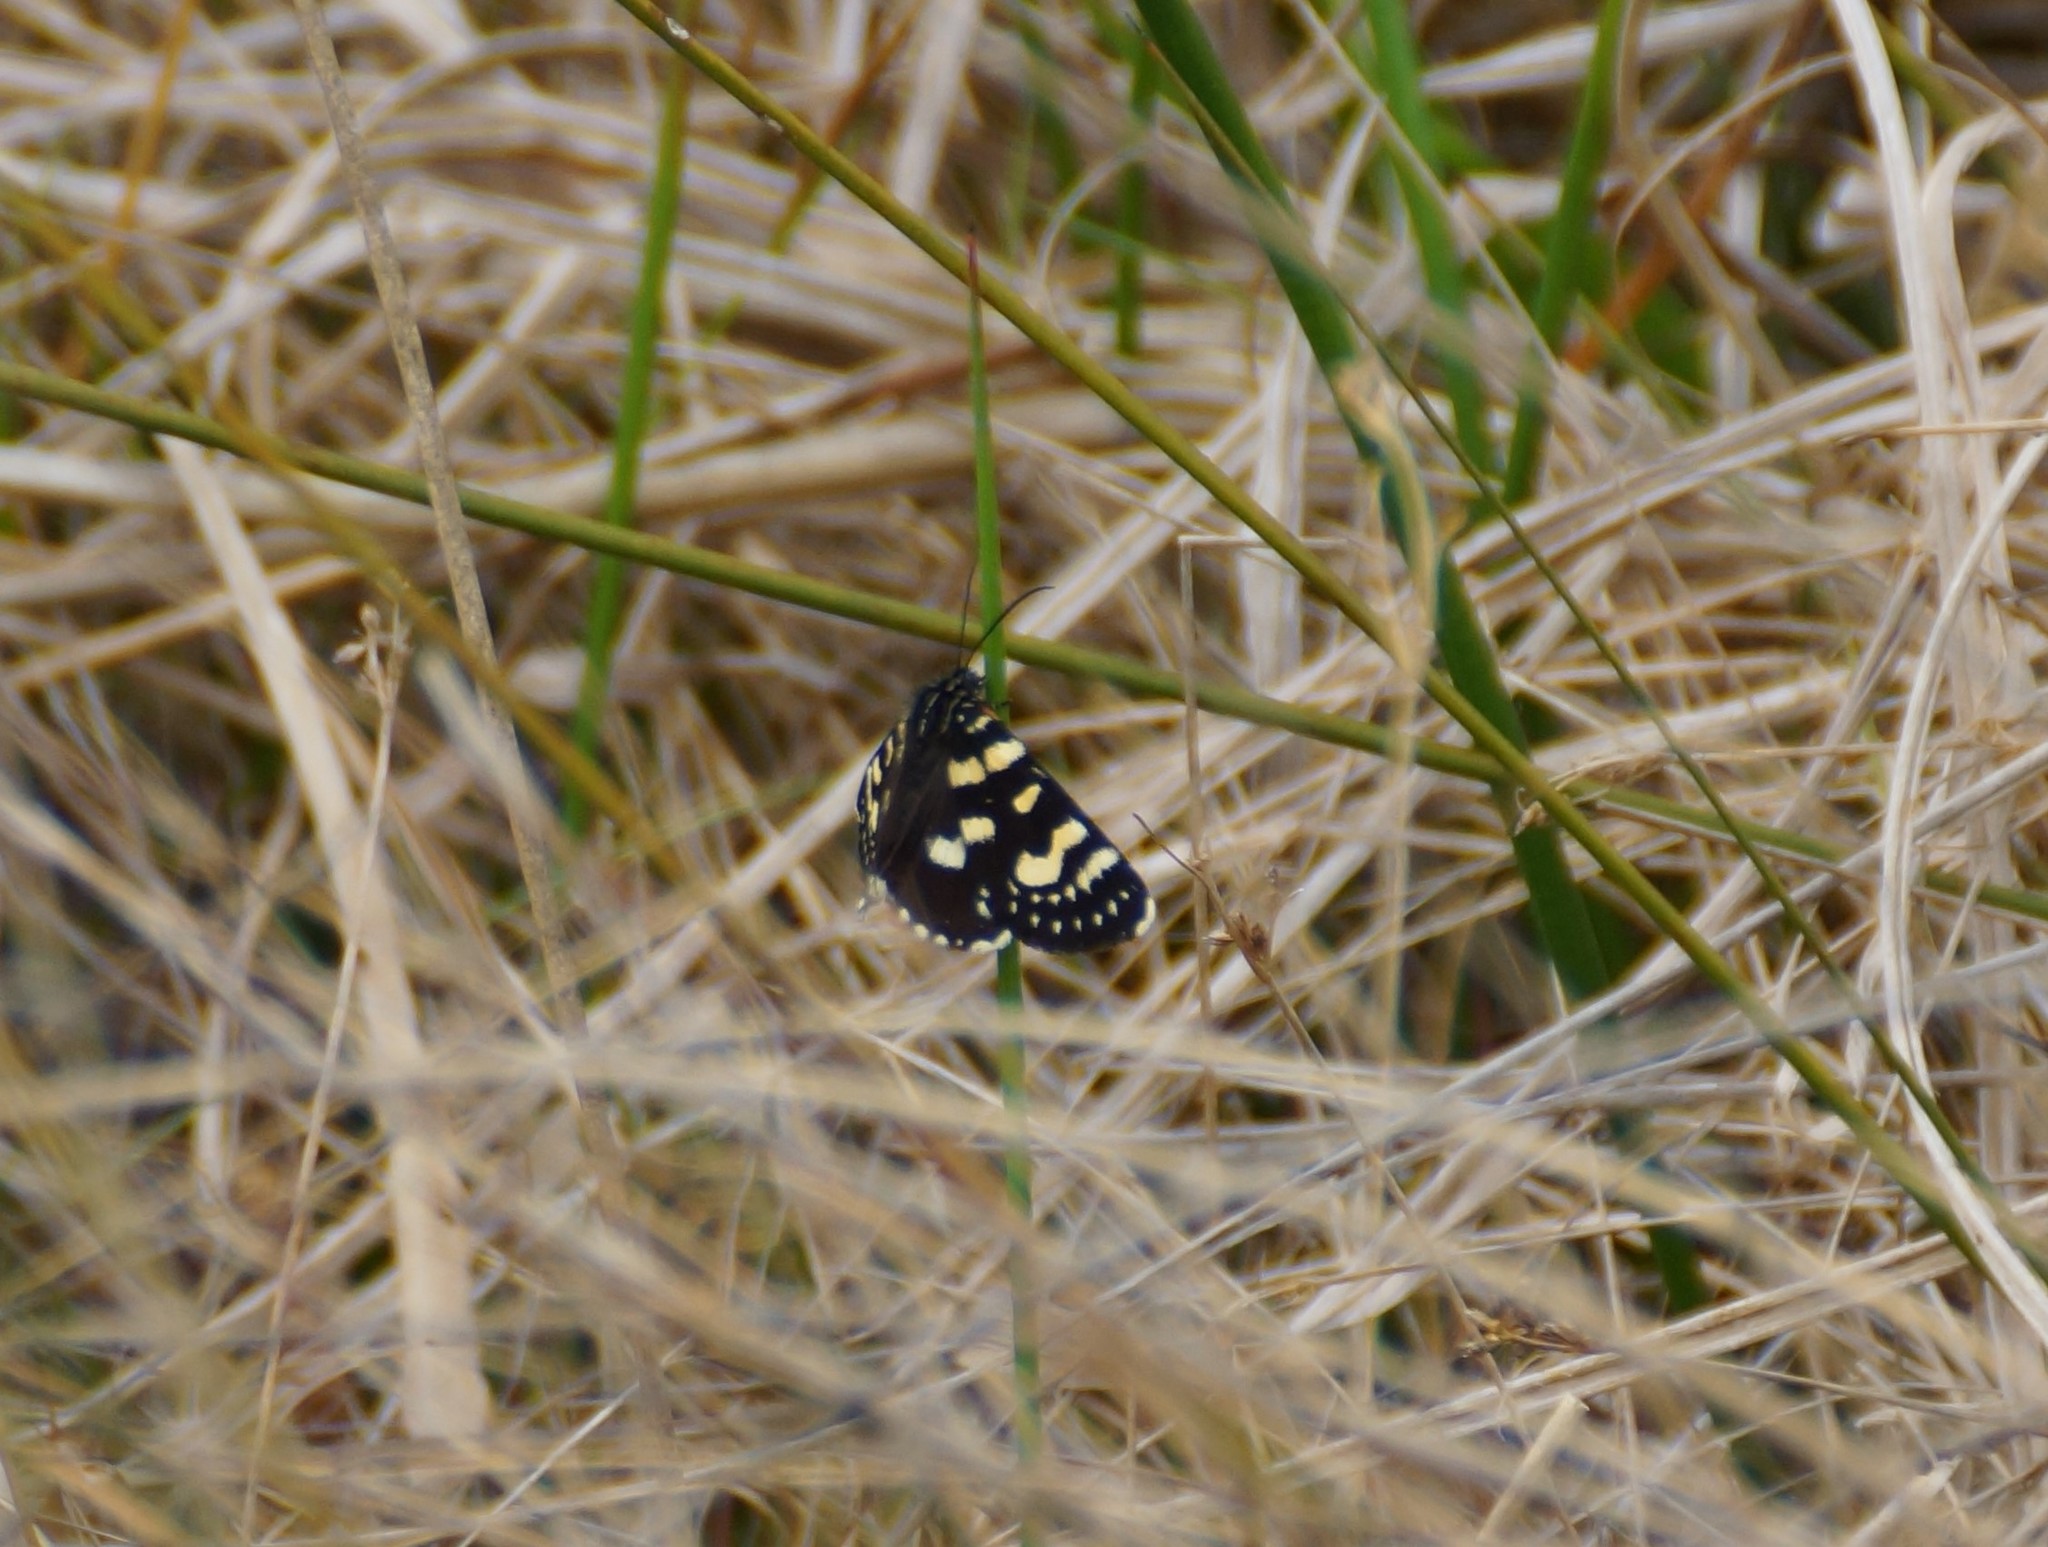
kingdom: Animalia
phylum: Arthropoda
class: Insecta
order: Lepidoptera
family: Noctuidae
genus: Phalaenoides
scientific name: Phalaenoides tristifica
